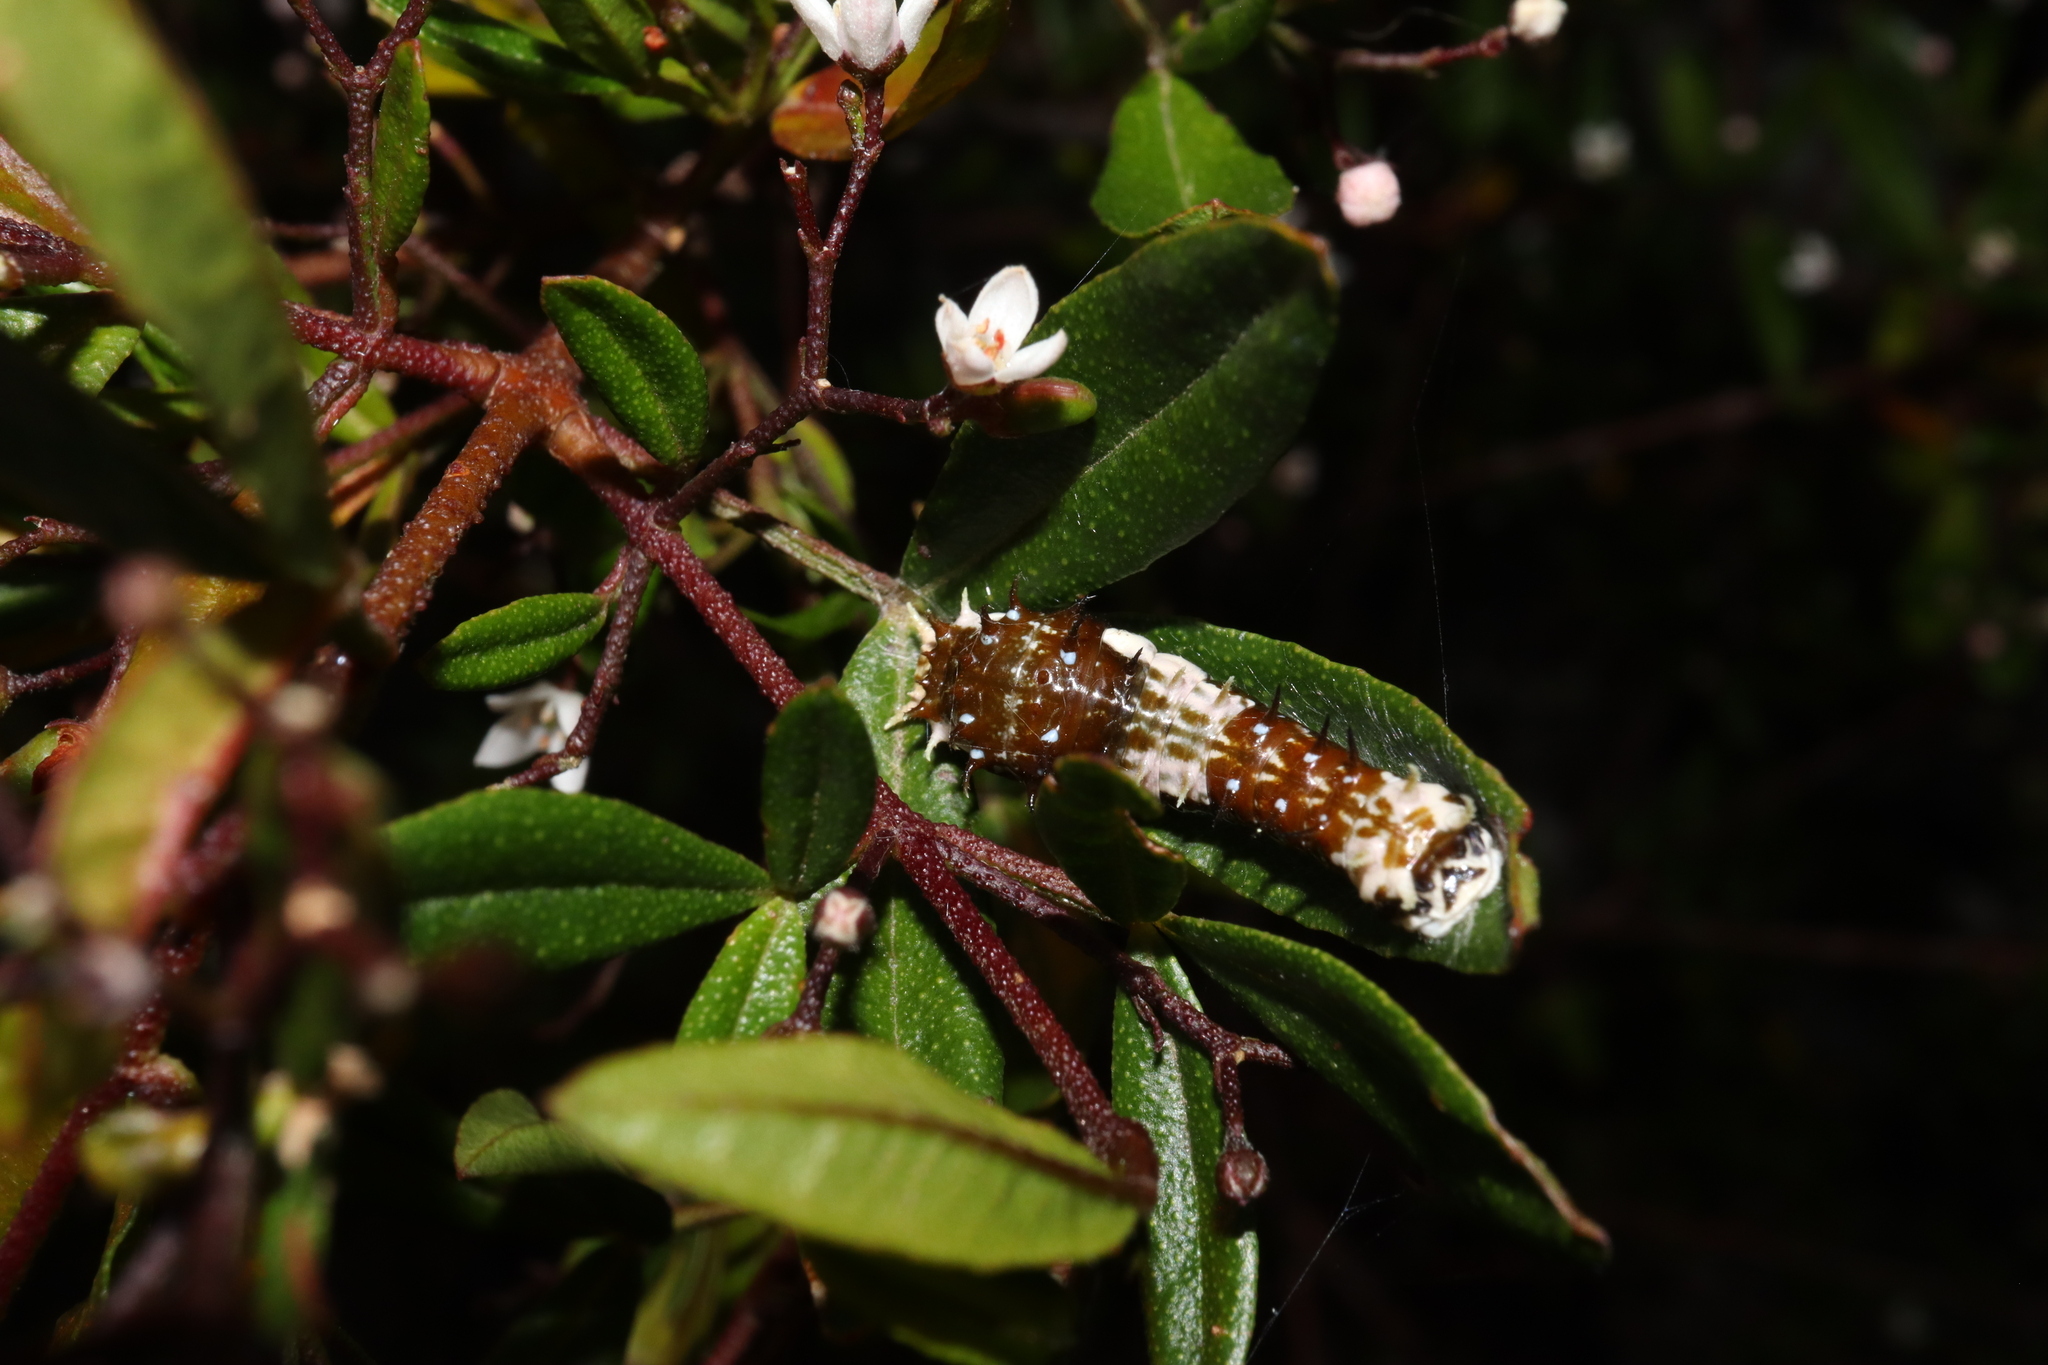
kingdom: Animalia
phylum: Arthropoda
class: Insecta
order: Lepidoptera
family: Papilionidae
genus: Papilio
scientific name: Papilio aegeus
